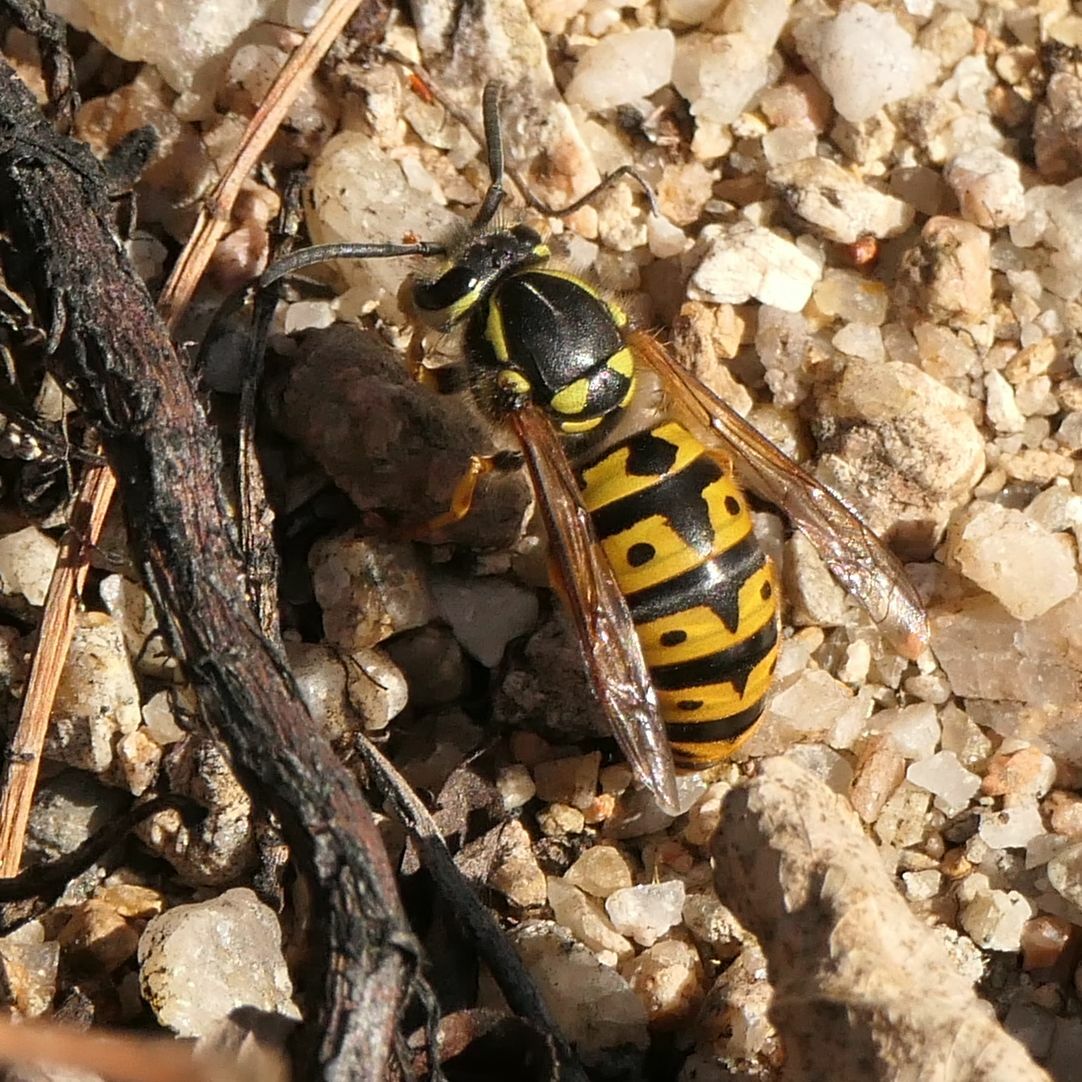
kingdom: Animalia
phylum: Arthropoda
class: Insecta
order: Hymenoptera
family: Vespidae
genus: Vespula
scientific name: Vespula germanica
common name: German wasp
